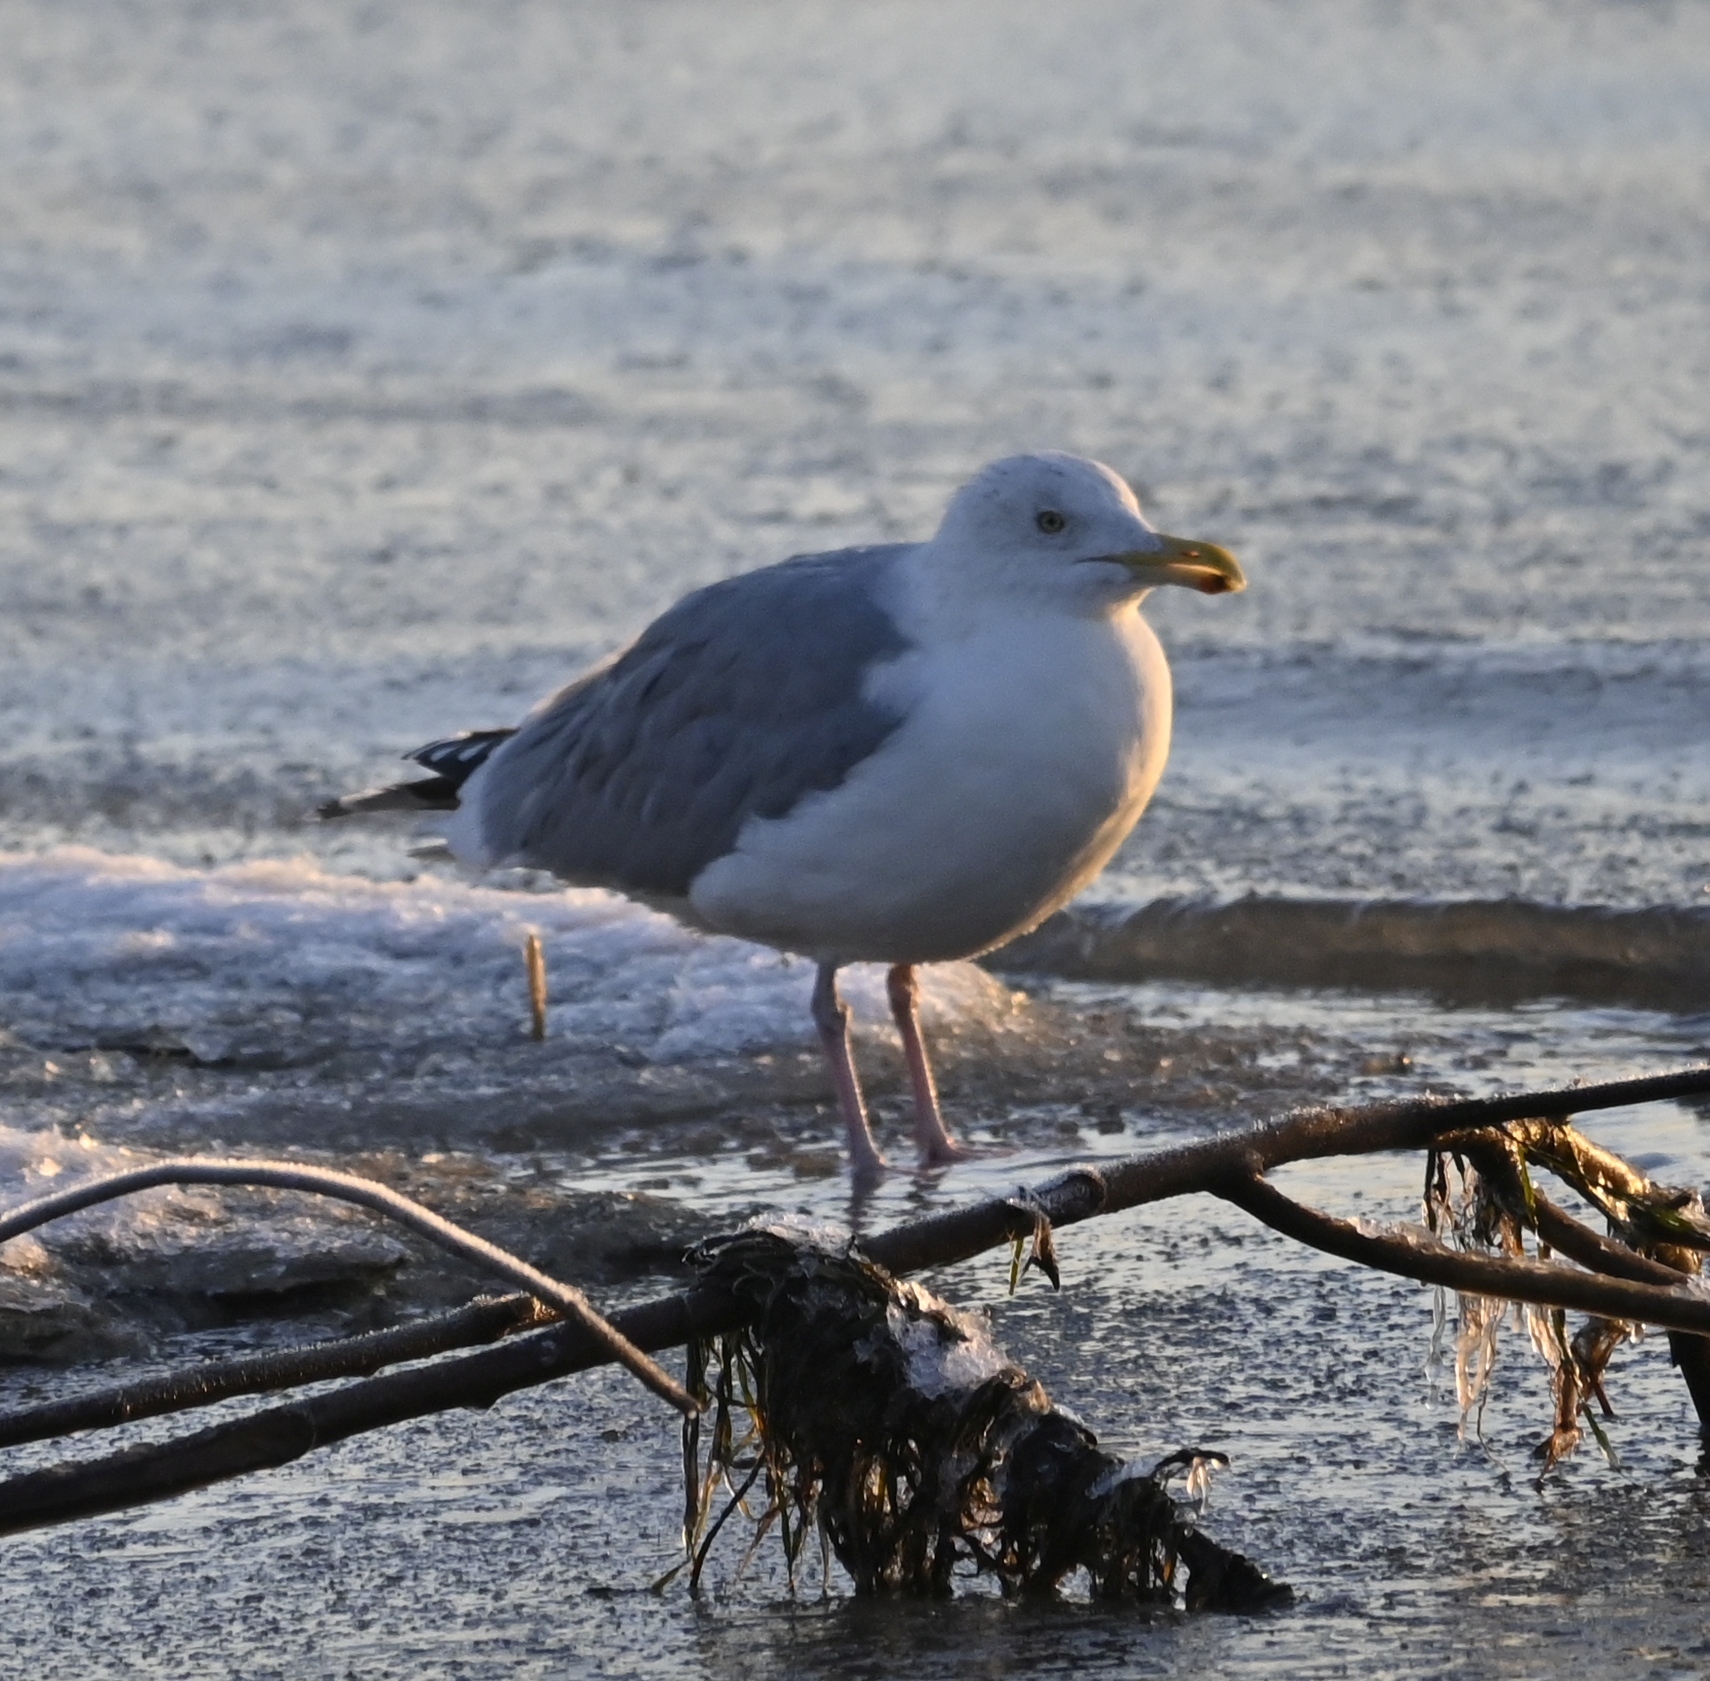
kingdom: Animalia
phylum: Chordata
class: Aves
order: Charadriiformes
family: Laridae
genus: Larus
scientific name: Larus argentatus
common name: Herring gull
